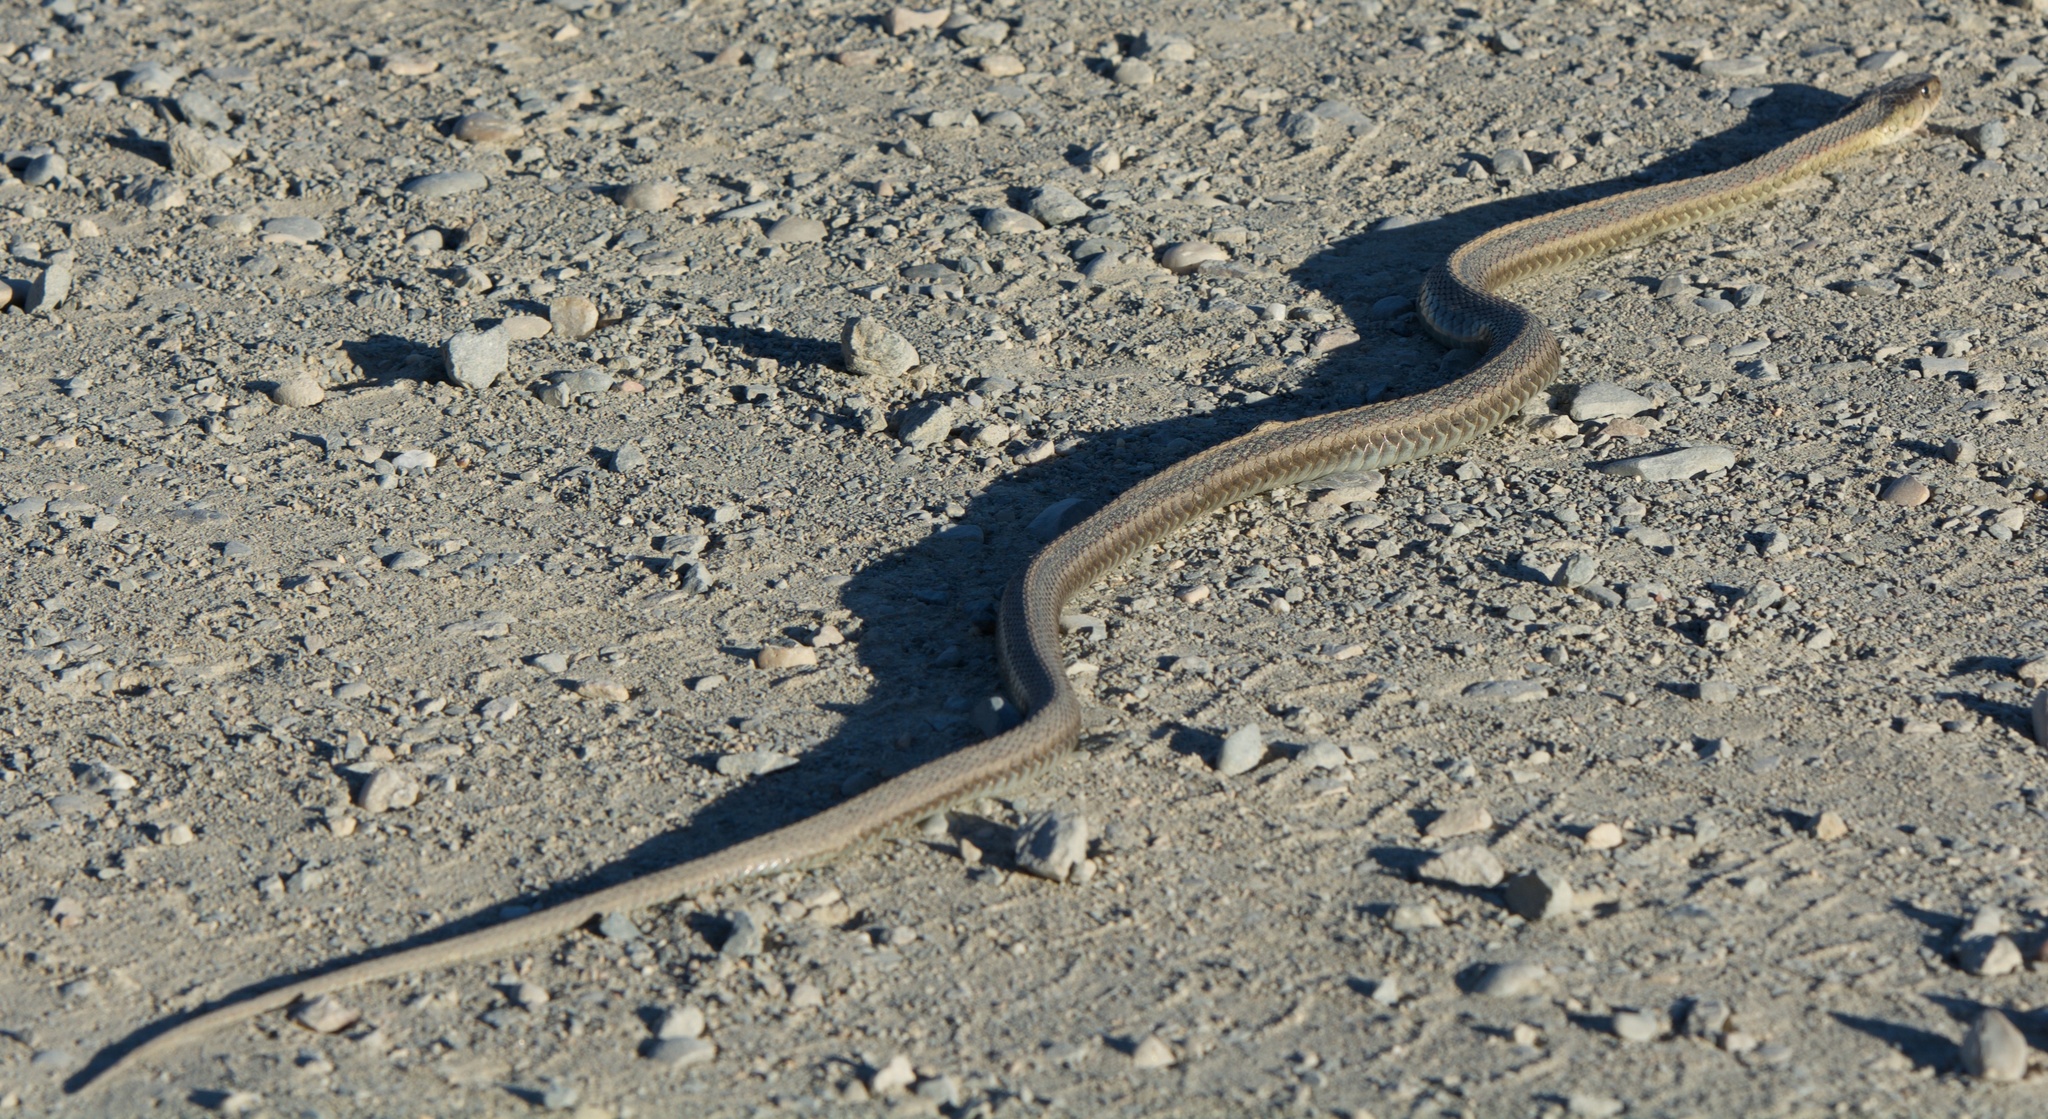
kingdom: Animalia
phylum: Chordata
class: Squamata
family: Colubridae
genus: Thamnophis
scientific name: Thamnophis sirtalis
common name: Common garter snake
